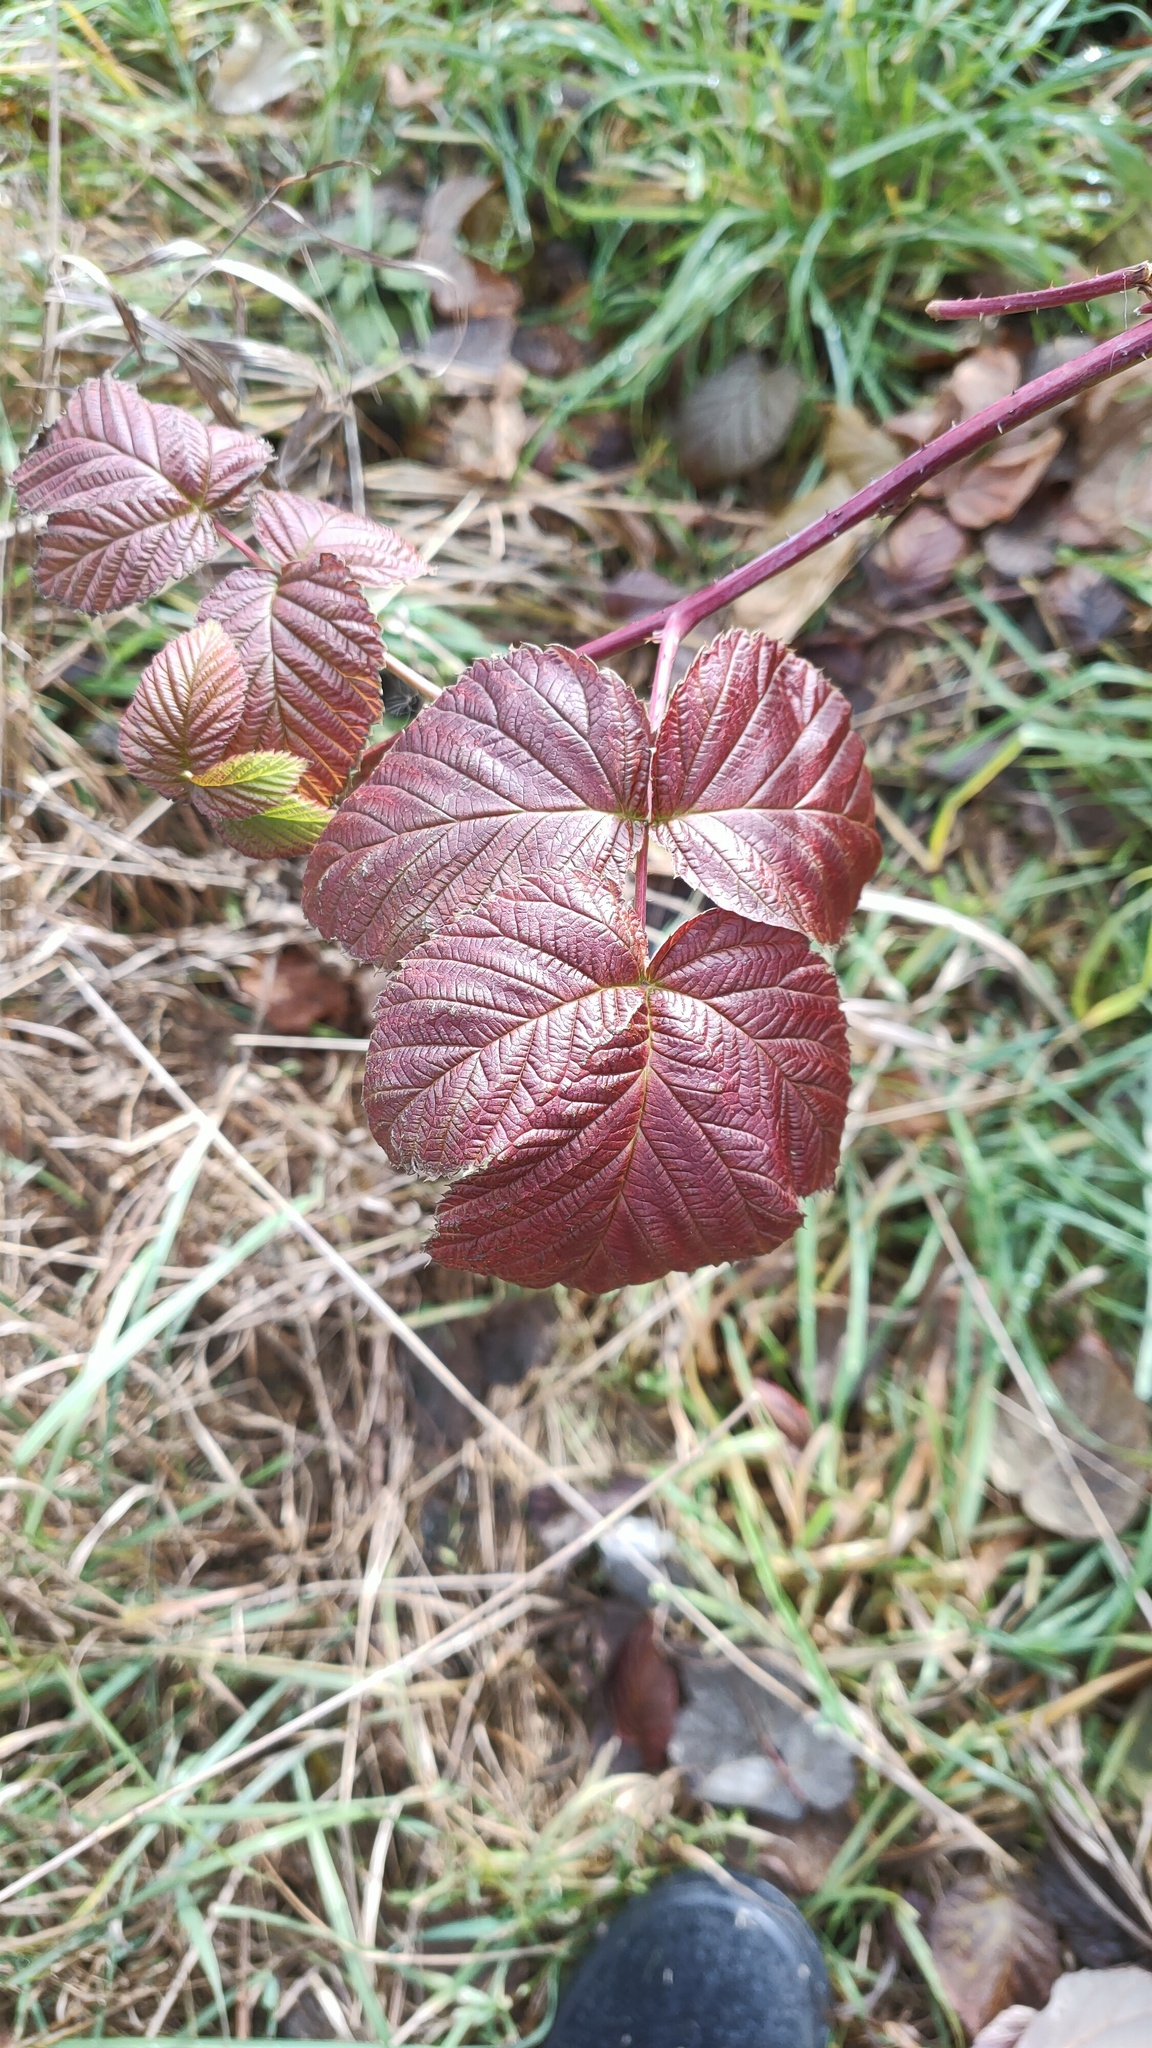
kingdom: Plantae
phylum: Tracheophyta
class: Magnoliopsida
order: Rosales
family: Rosaceae
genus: Rubus
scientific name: Rubus idaeus
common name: Raspberry
